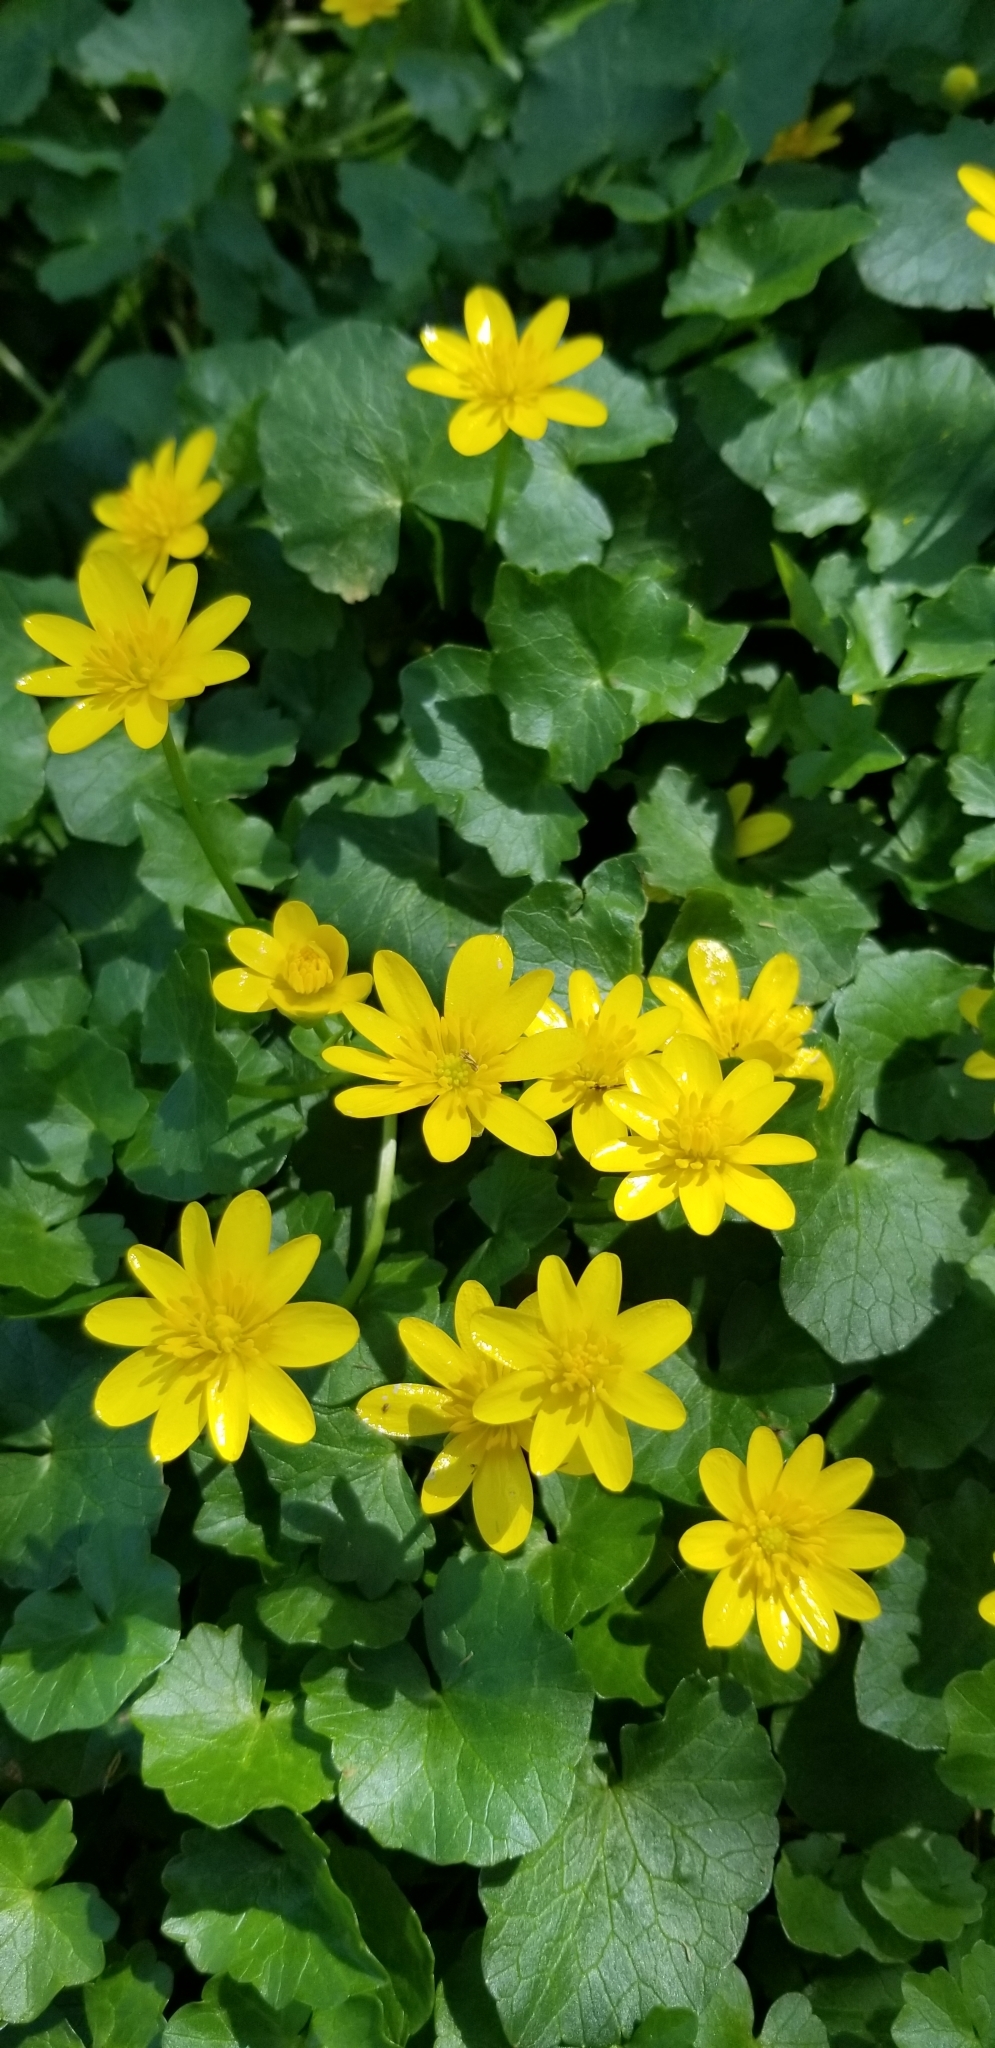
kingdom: Plantae
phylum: Tracheophyta
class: Magnoliopsida
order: Ranunculales
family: Ranunculaceae
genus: Ficaria
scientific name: Ficaria verna
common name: Lesser celandine
